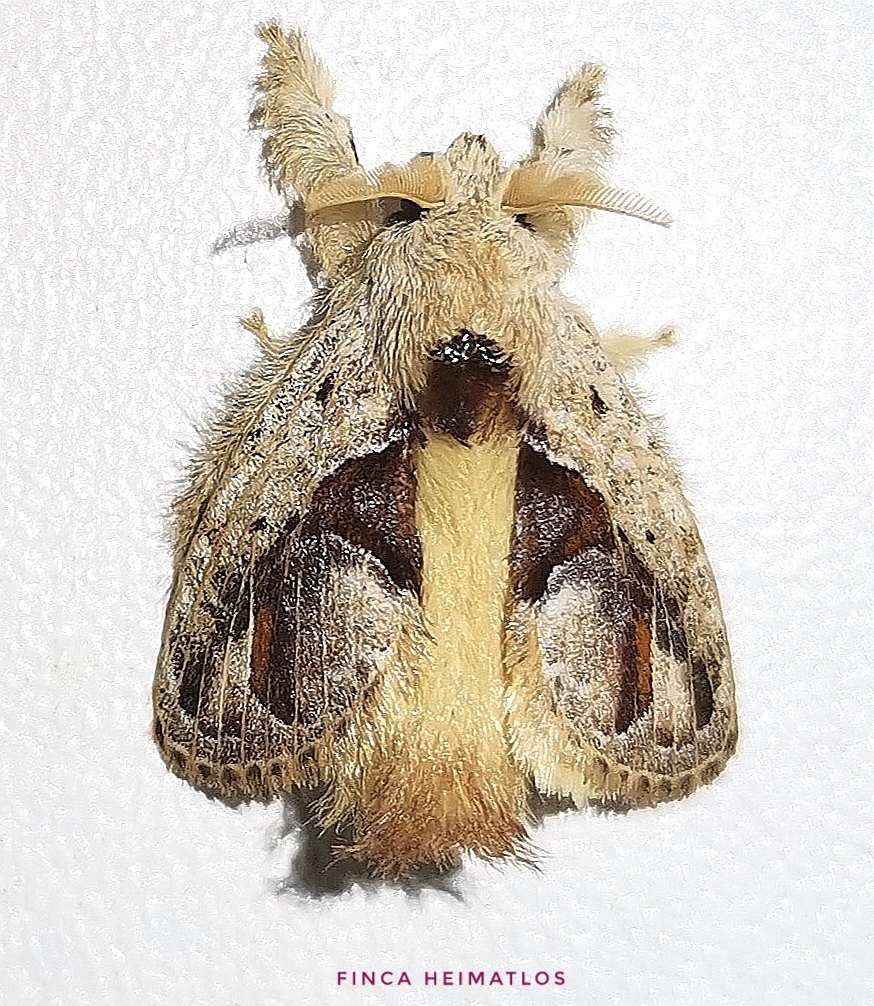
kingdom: Animalia
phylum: Arthropoda
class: Insecta
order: Lepidoptera
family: Lasiocampidae
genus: Nesara
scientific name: Nesara
